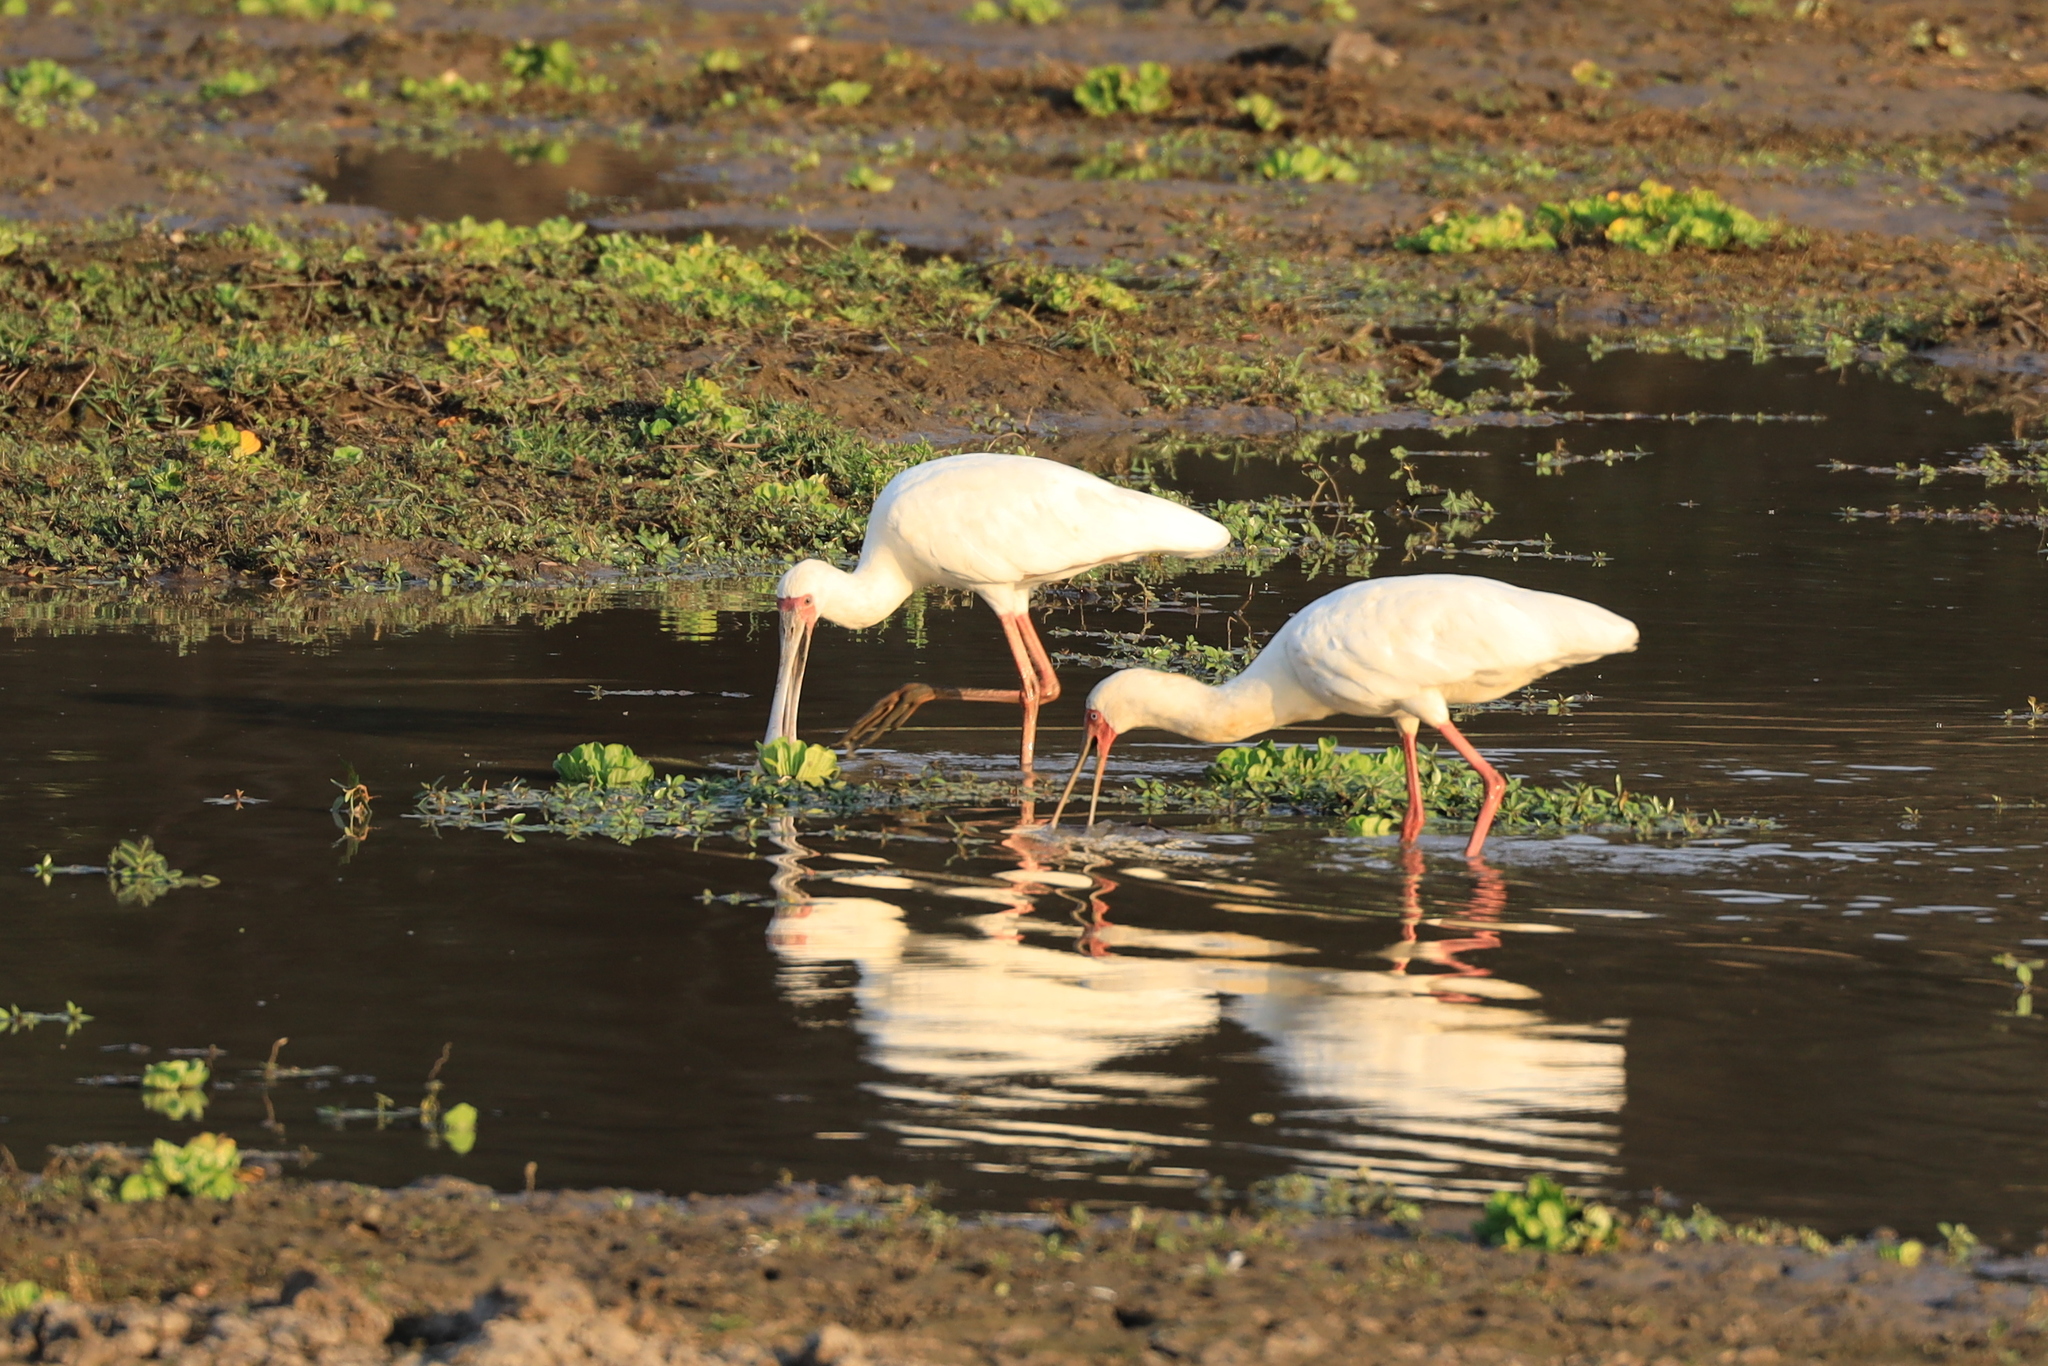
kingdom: Animalia
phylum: Chordata
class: Aves
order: Pelecaniformes
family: Threskiornithidae
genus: Platalea
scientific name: Platalea alba
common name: African spoonbill
